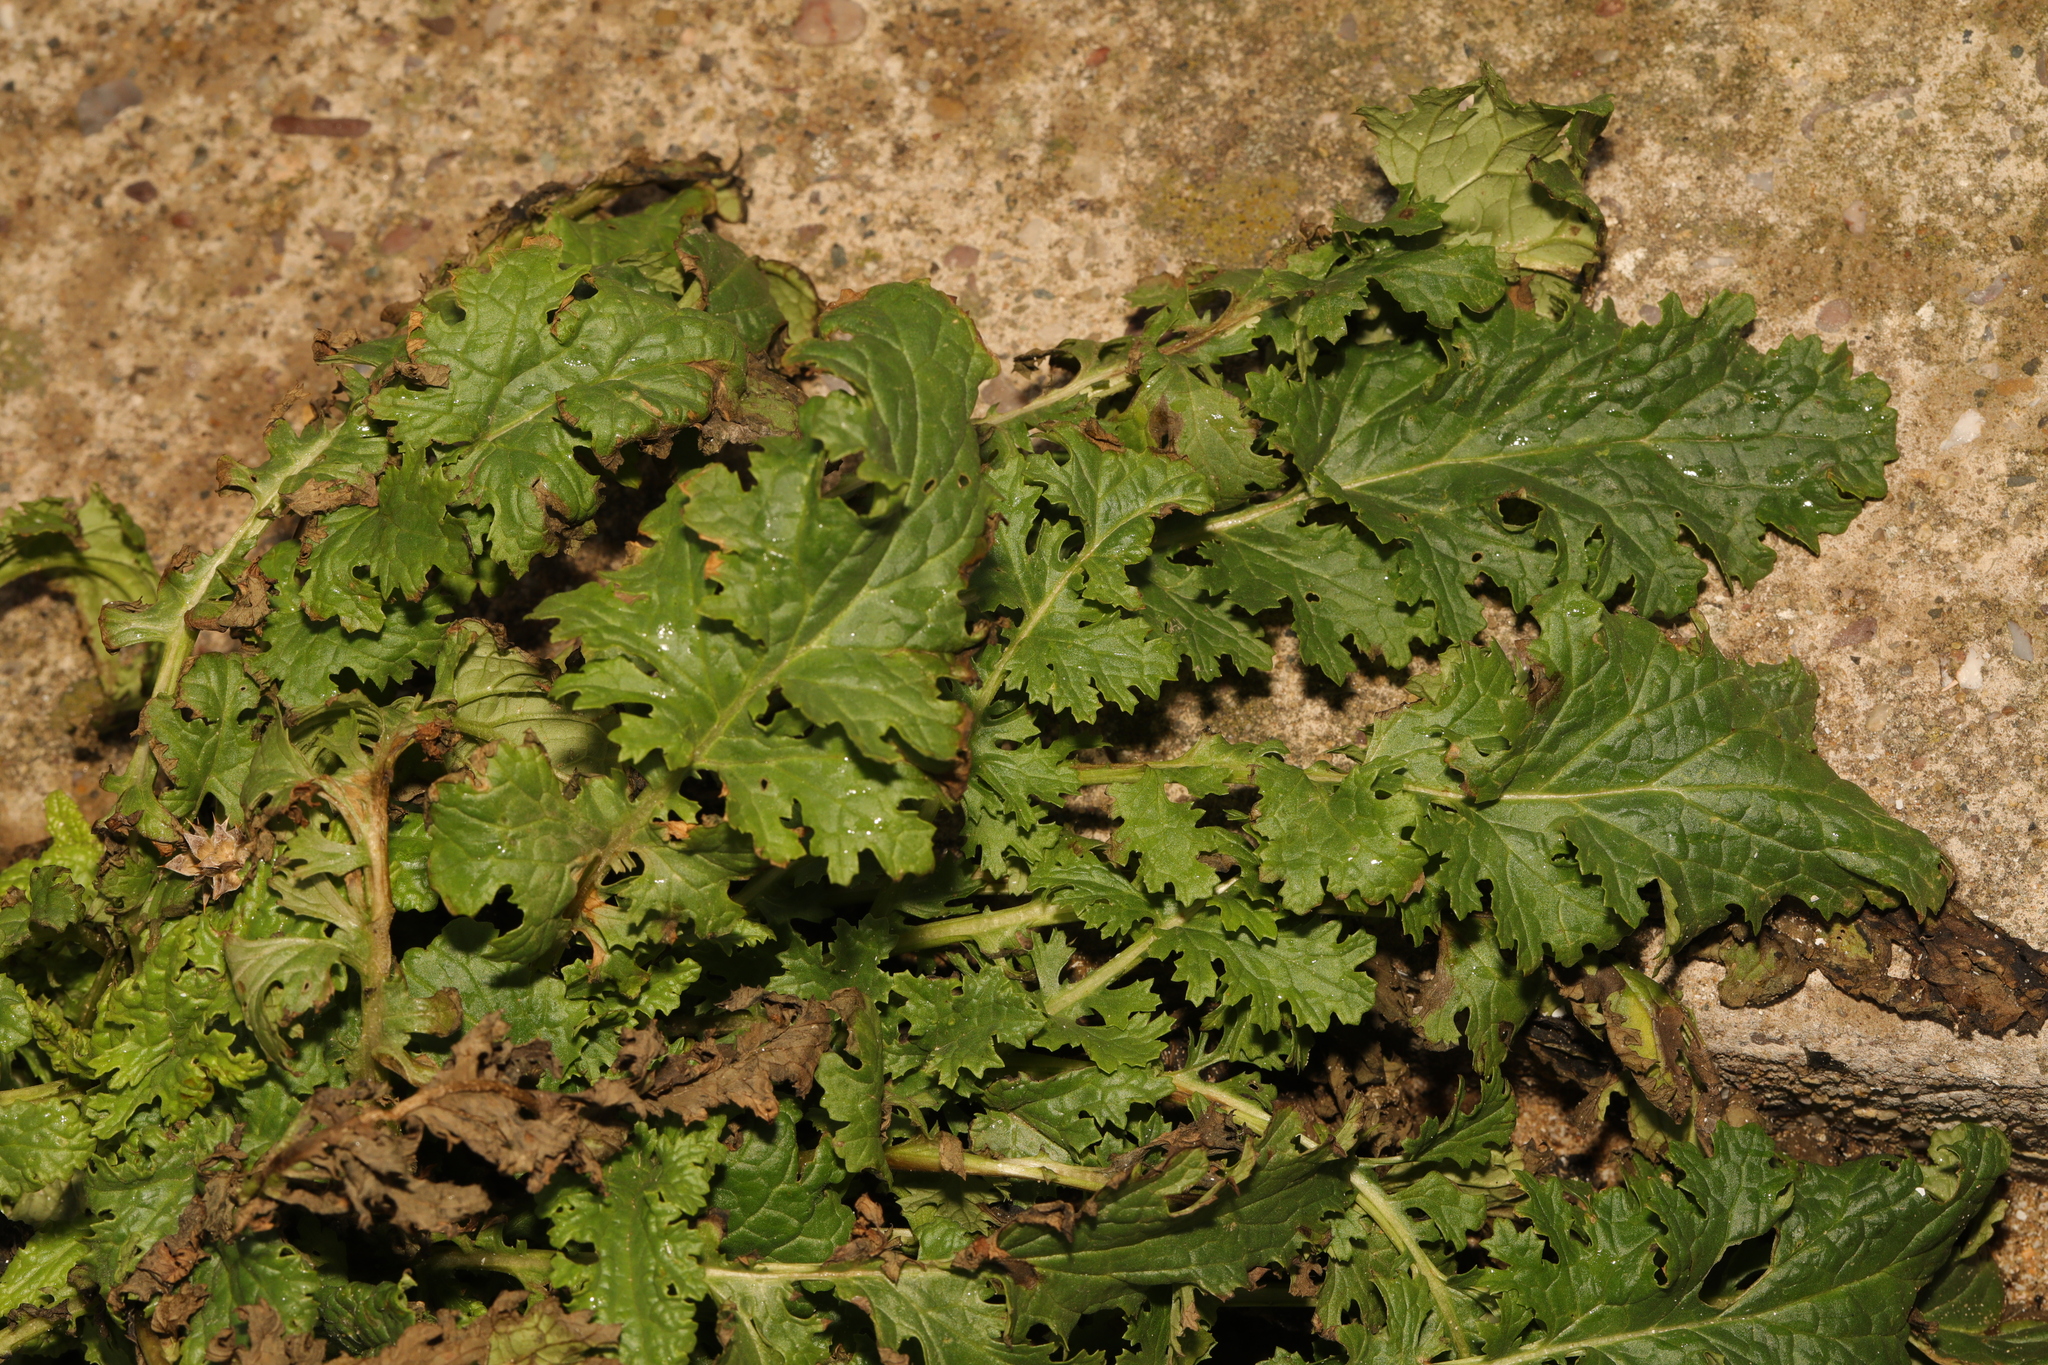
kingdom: Plantae
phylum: Tracheophyta
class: Magnoliopsida
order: Asterales
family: Asteraceae
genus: Jacobaea
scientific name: Jacobaea vulgaris
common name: Stinking willie
